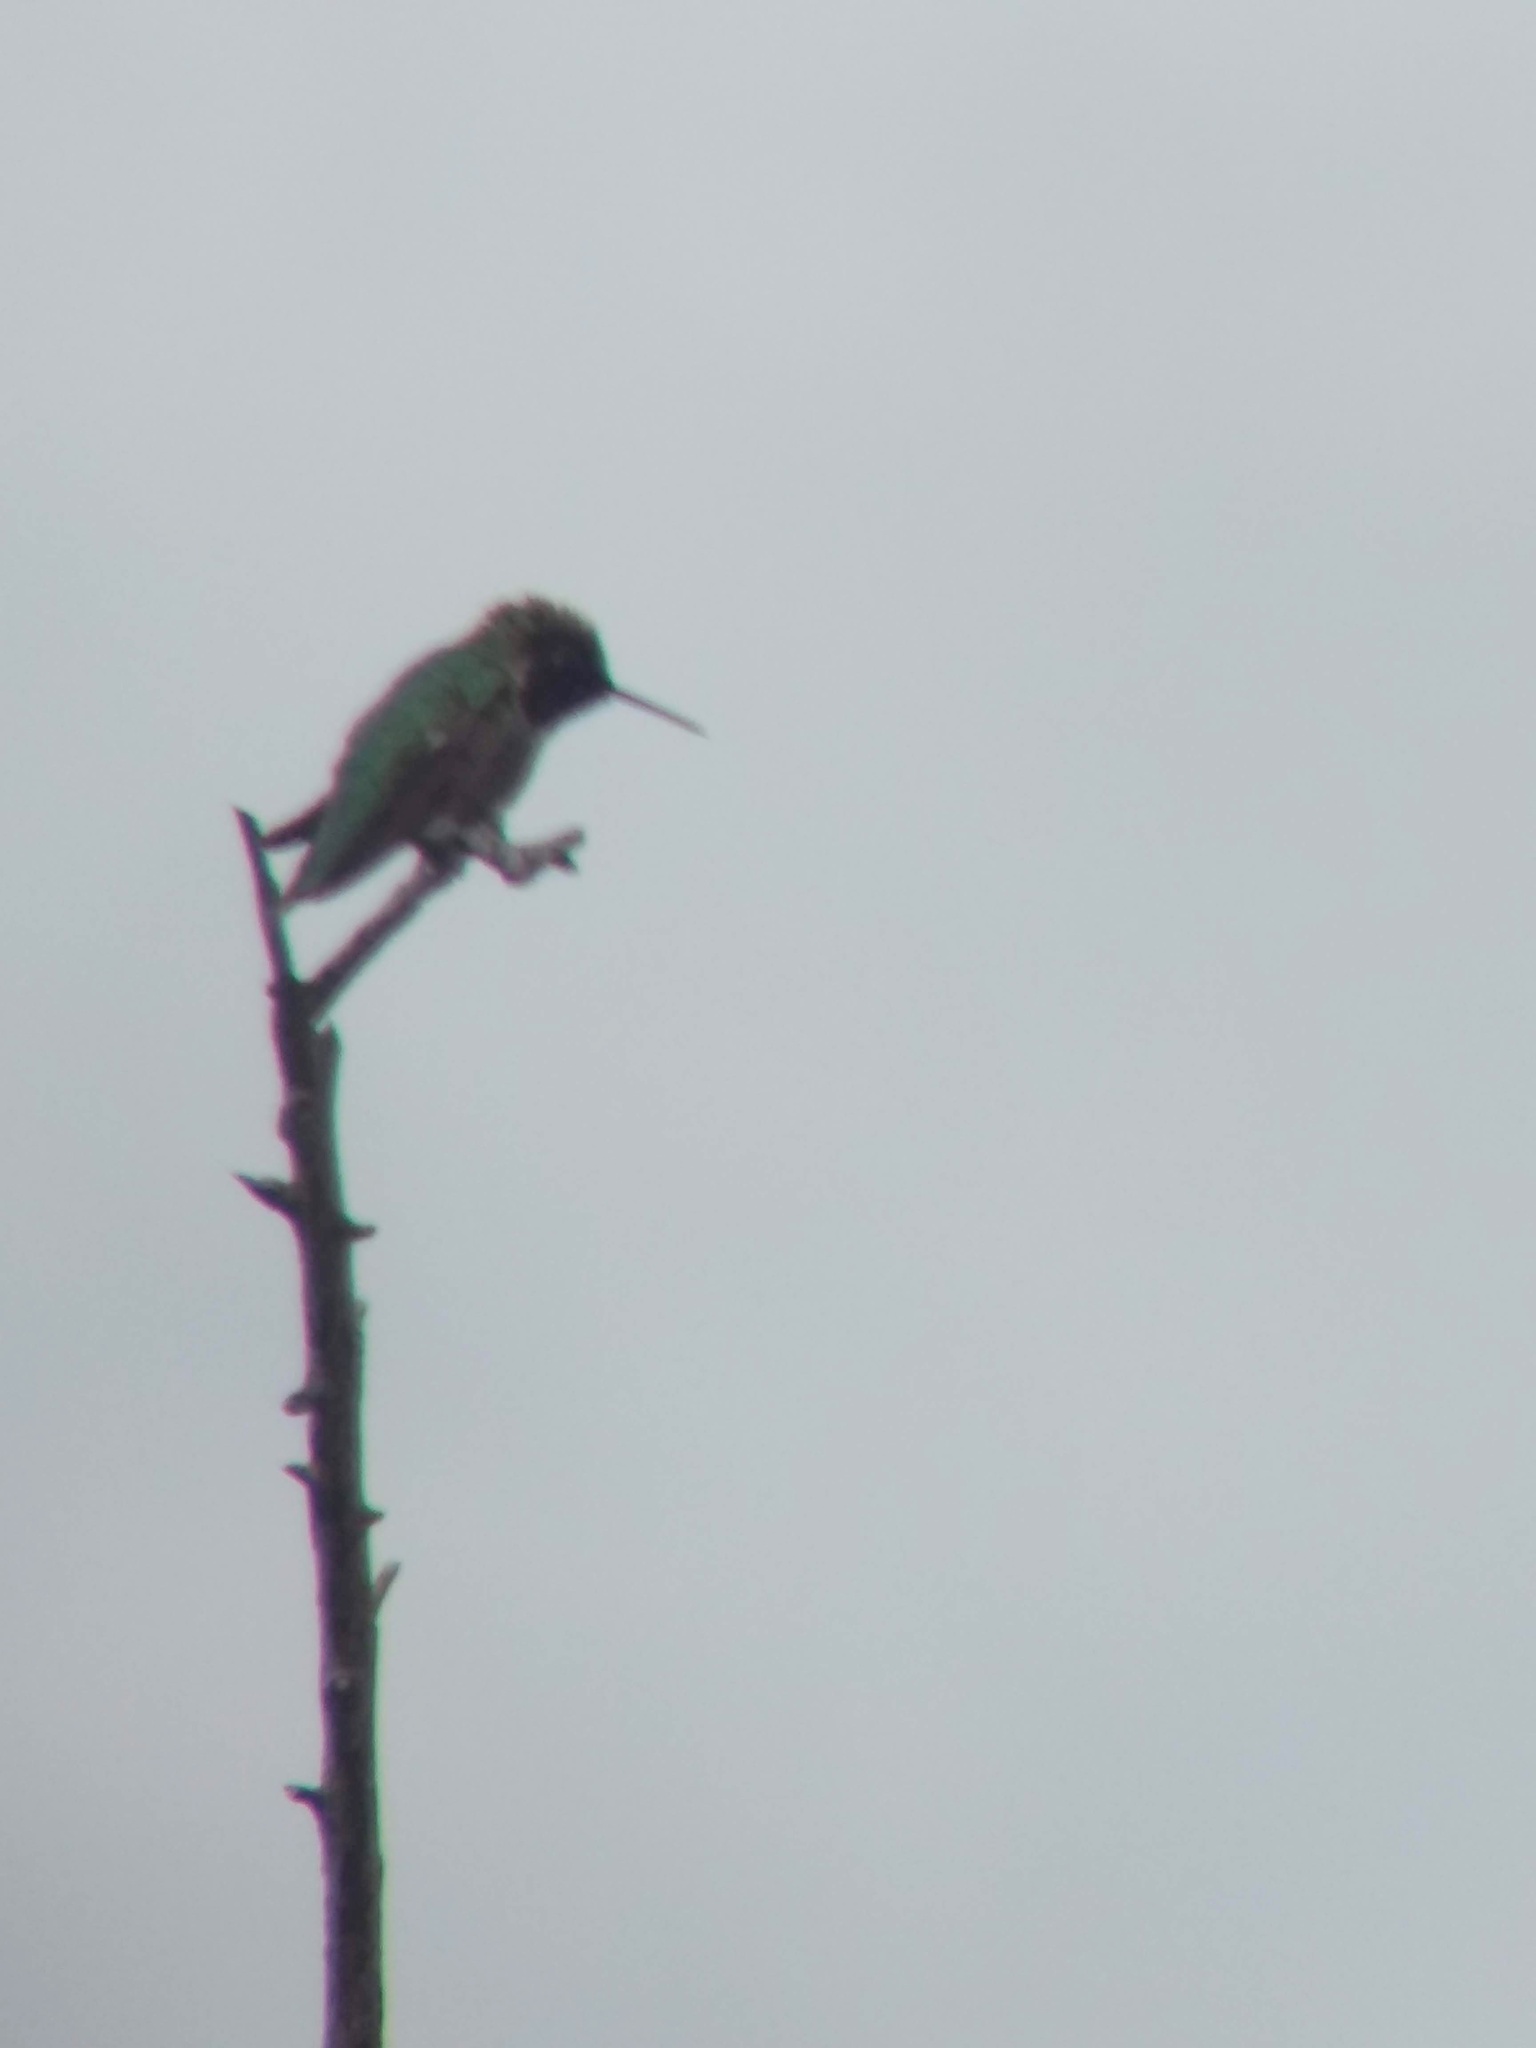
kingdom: Animalia
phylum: Chordata
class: Aves
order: Apodiformes
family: Trochilidae
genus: Calypte
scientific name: Calypte anna
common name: Anna's hummingbird
